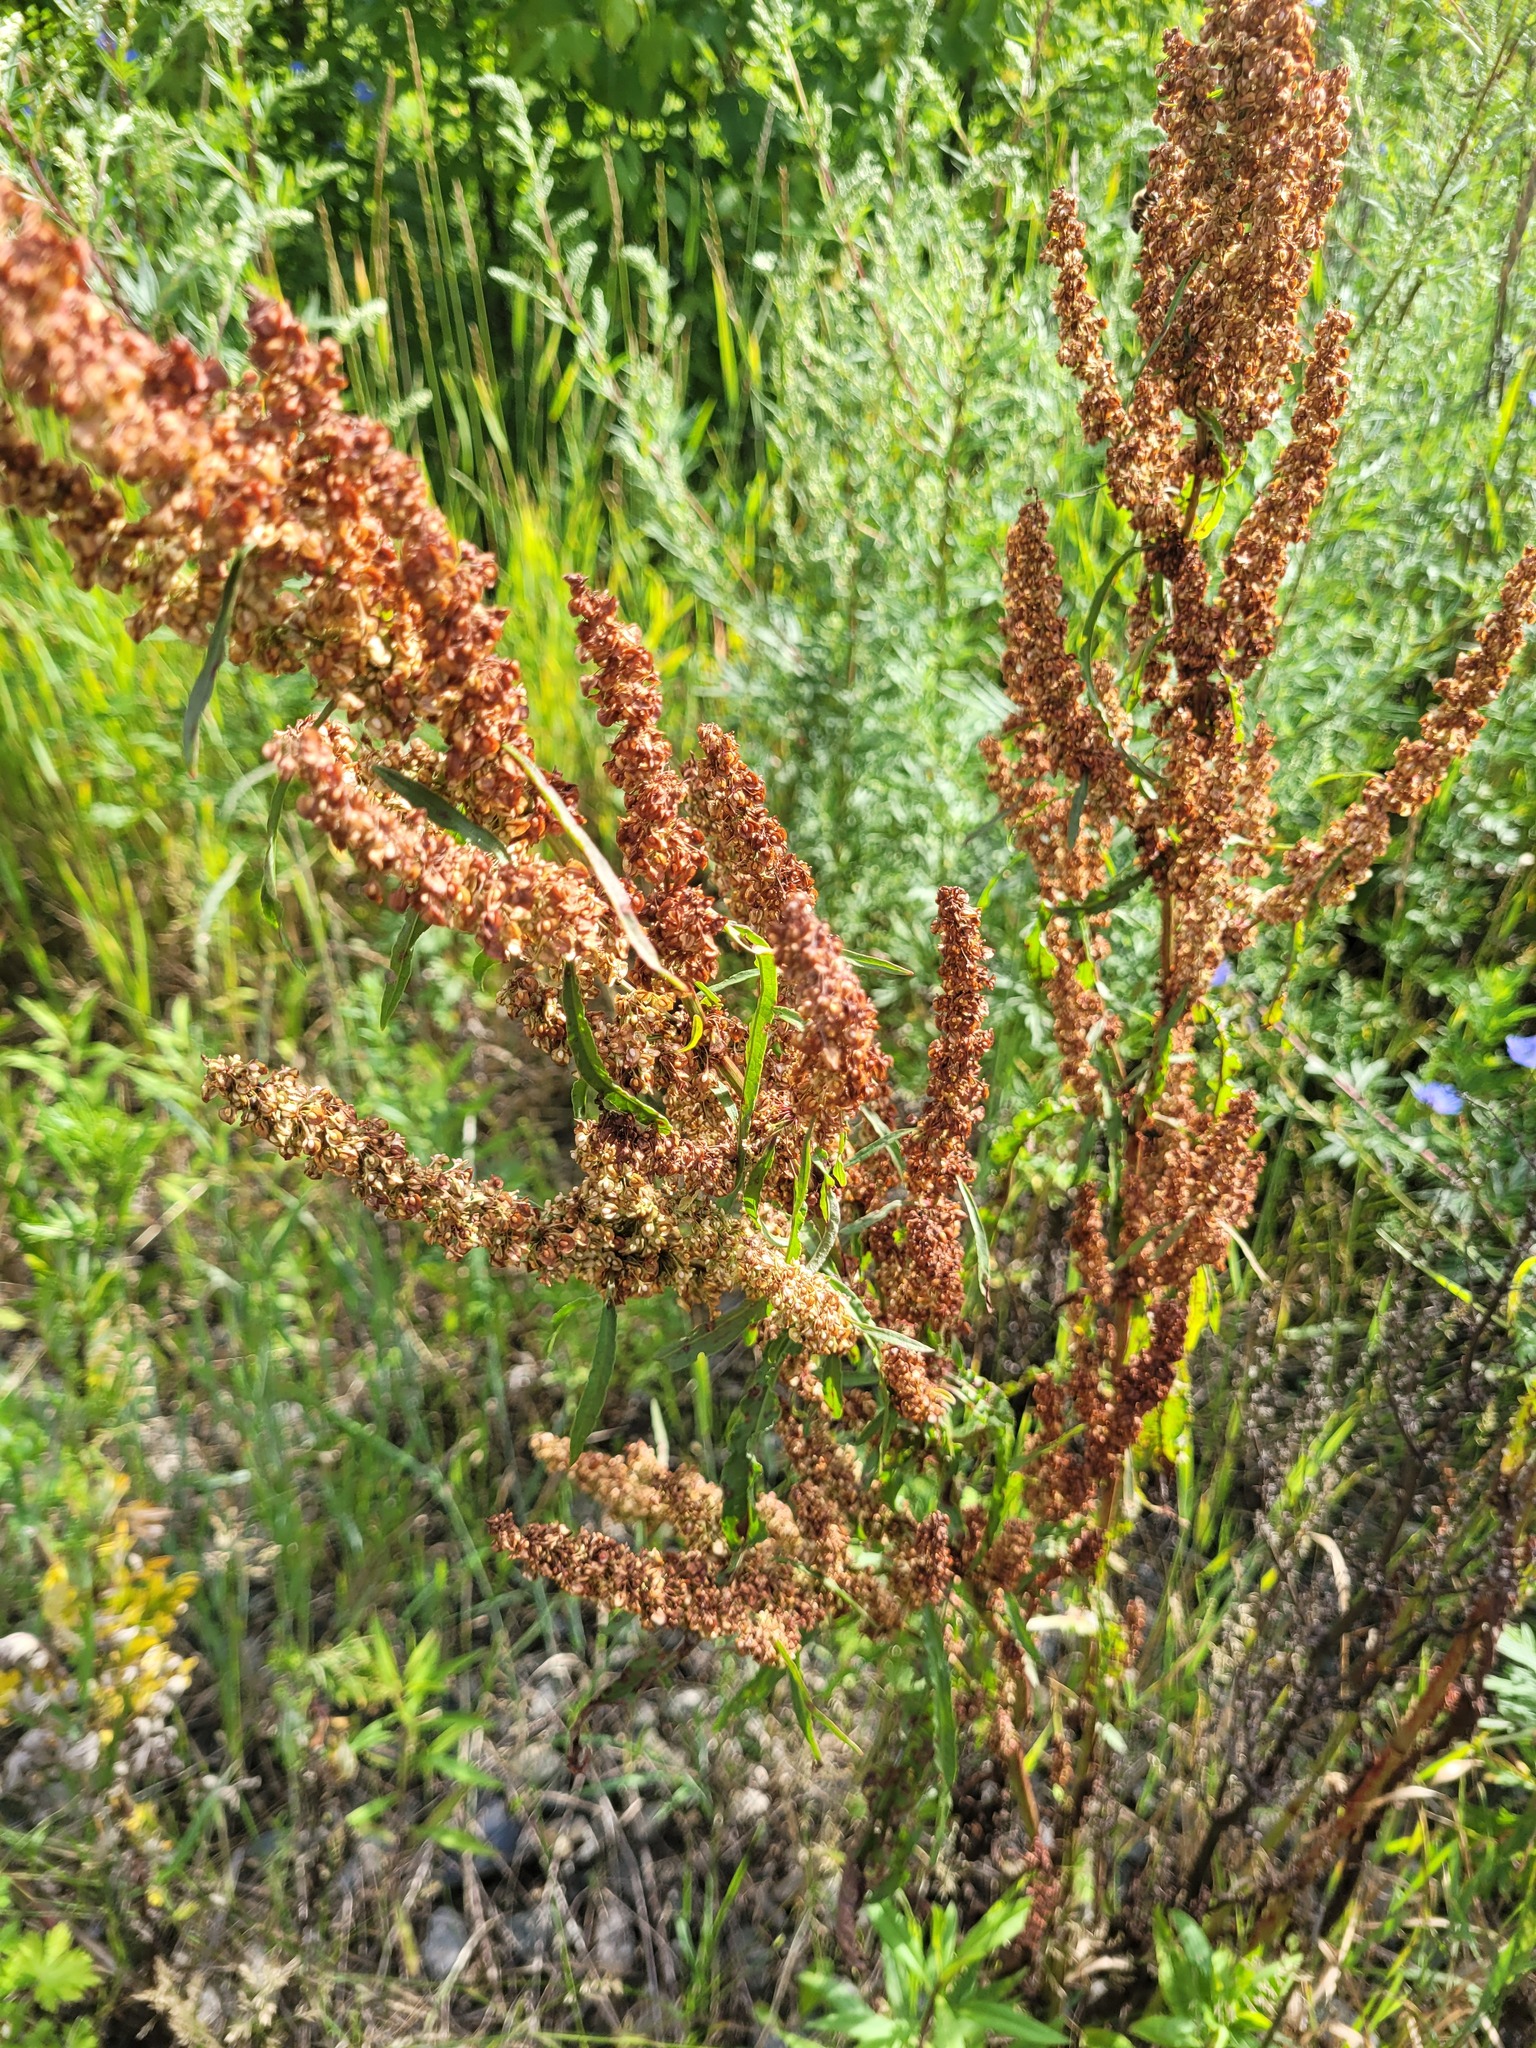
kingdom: Plantae
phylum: Tracheophyta
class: Magnoliopsida
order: Caryophyllales
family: Polygonaceae
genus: Rumex
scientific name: Rumex crispus
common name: Curled dock
